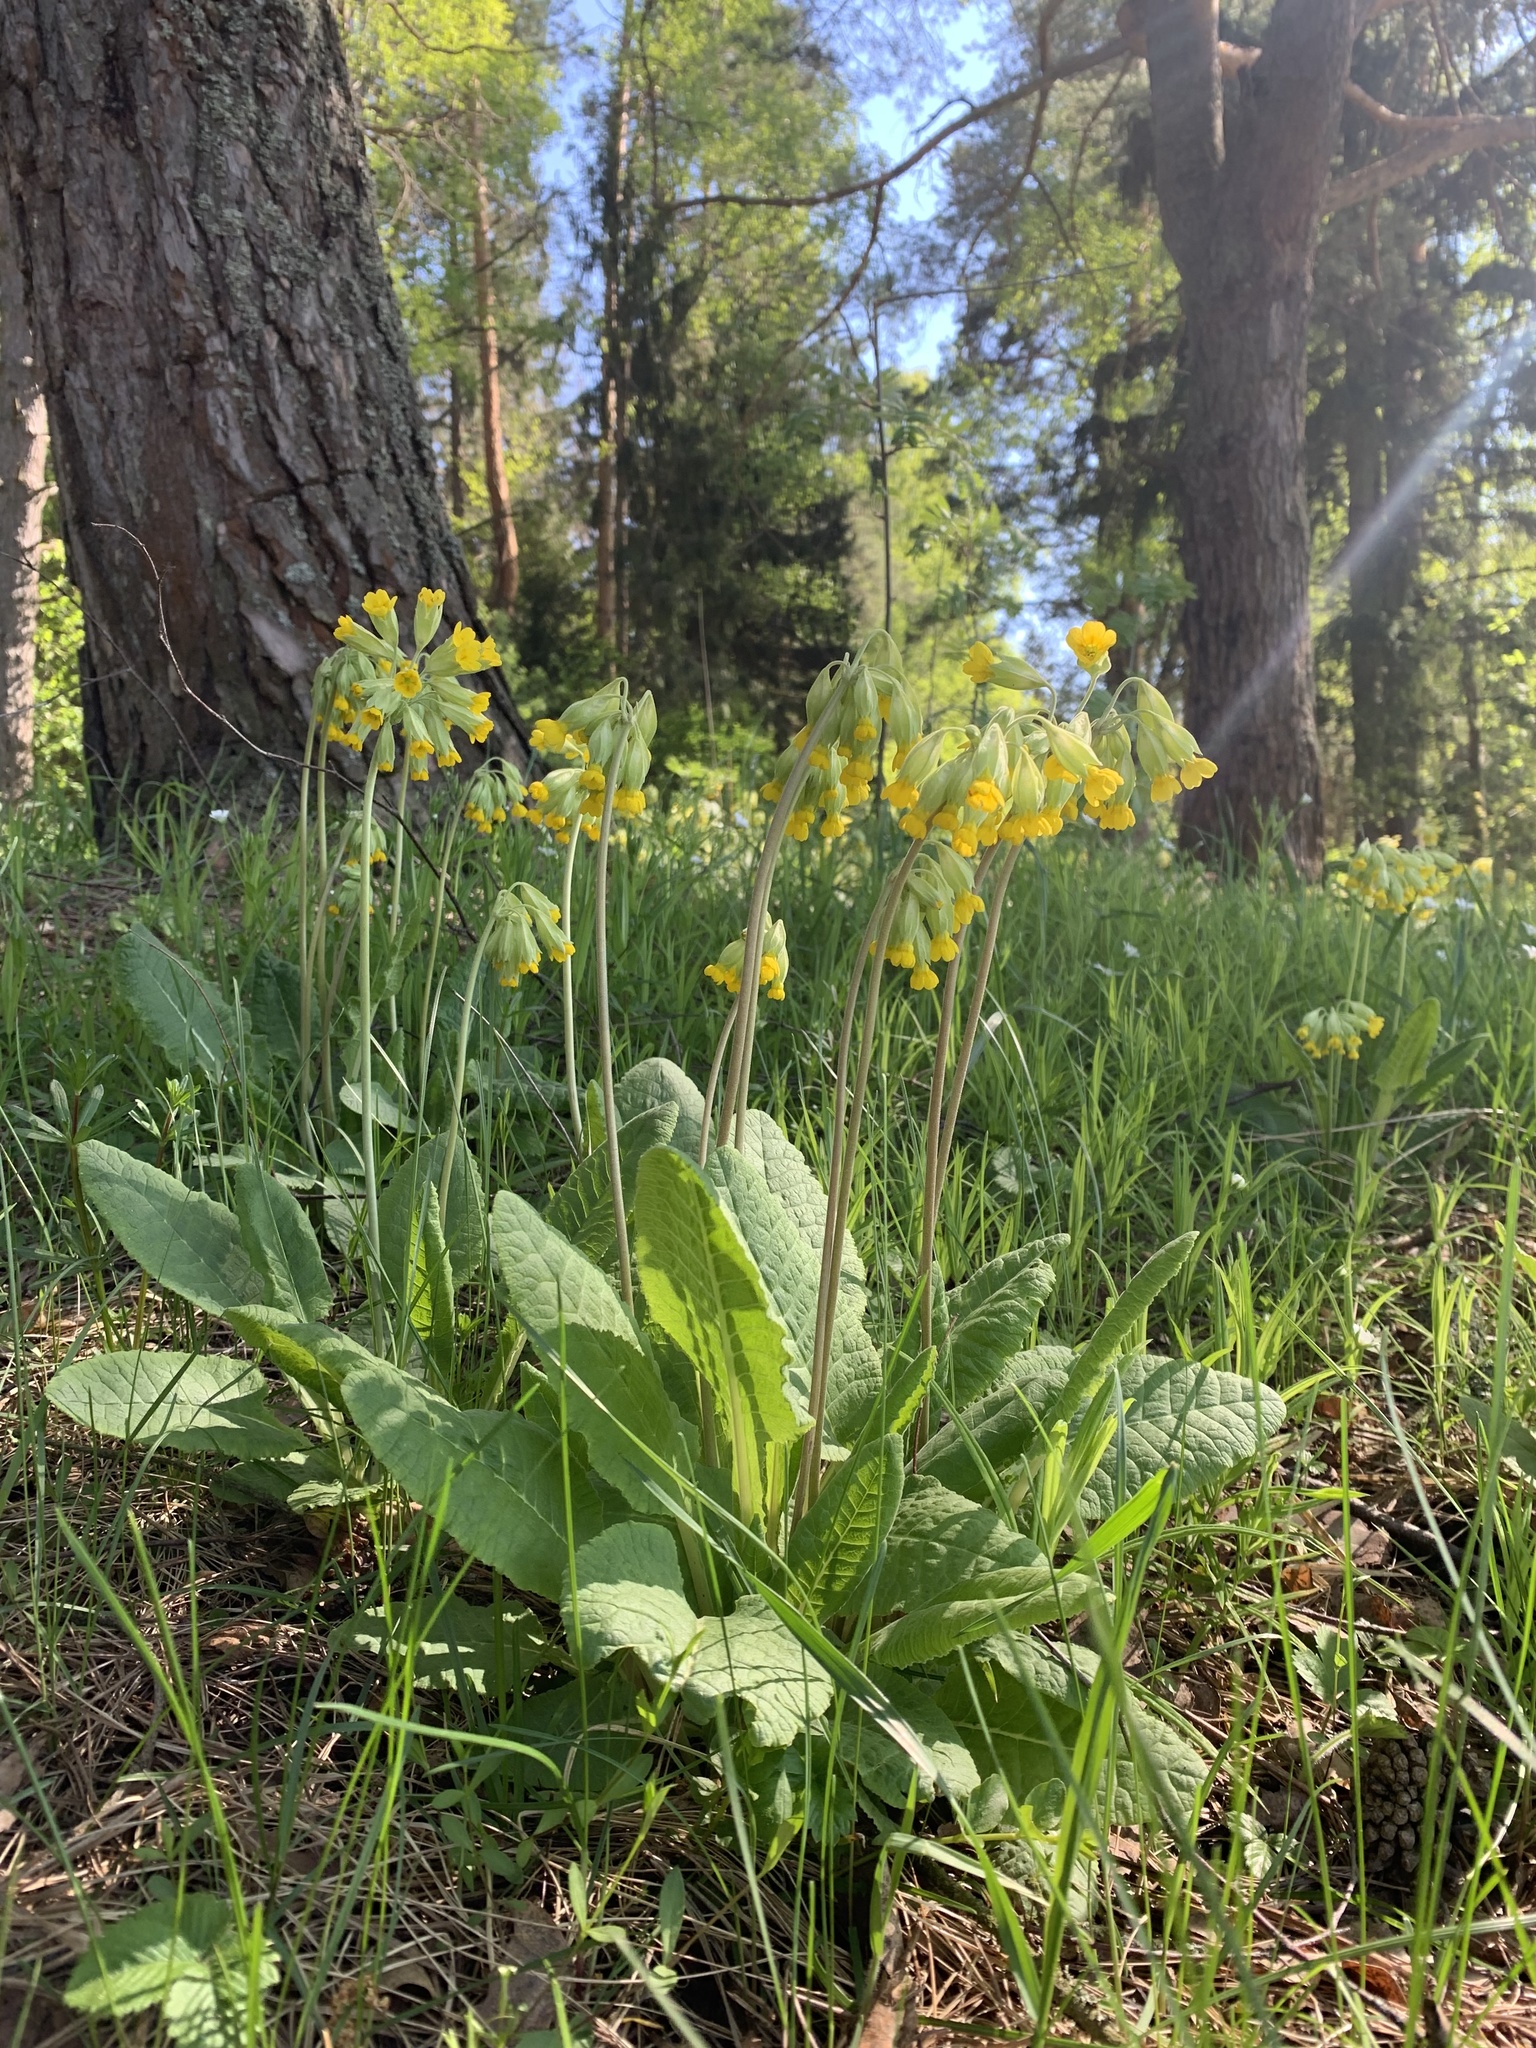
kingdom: Plantae
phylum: Tracheophyta
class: Magnoliopsida
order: Ericales
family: Primulaceae
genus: Primula
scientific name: Primula veris
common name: Cowslip
